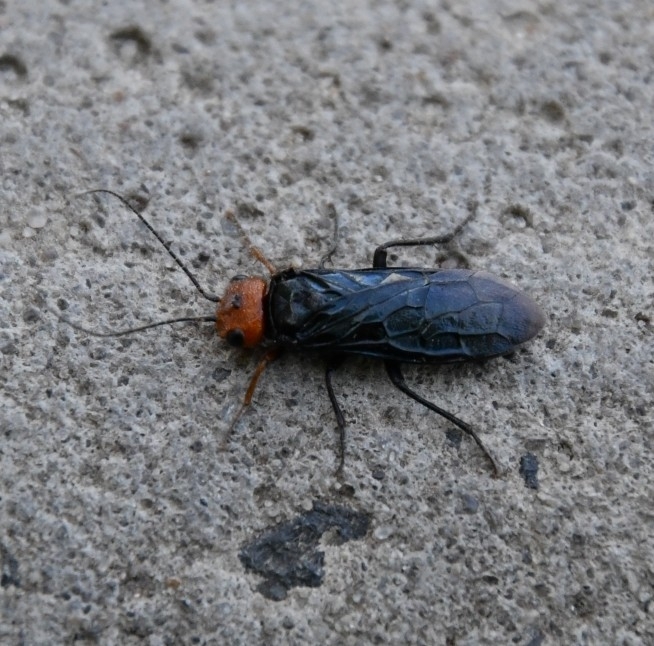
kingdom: Animalia
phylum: Arthropoda
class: Insecta
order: Hymenoptera
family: Pamphiliidae
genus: Acantholyda
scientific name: Acantholyda erythrocephala
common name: Pine false webworm
